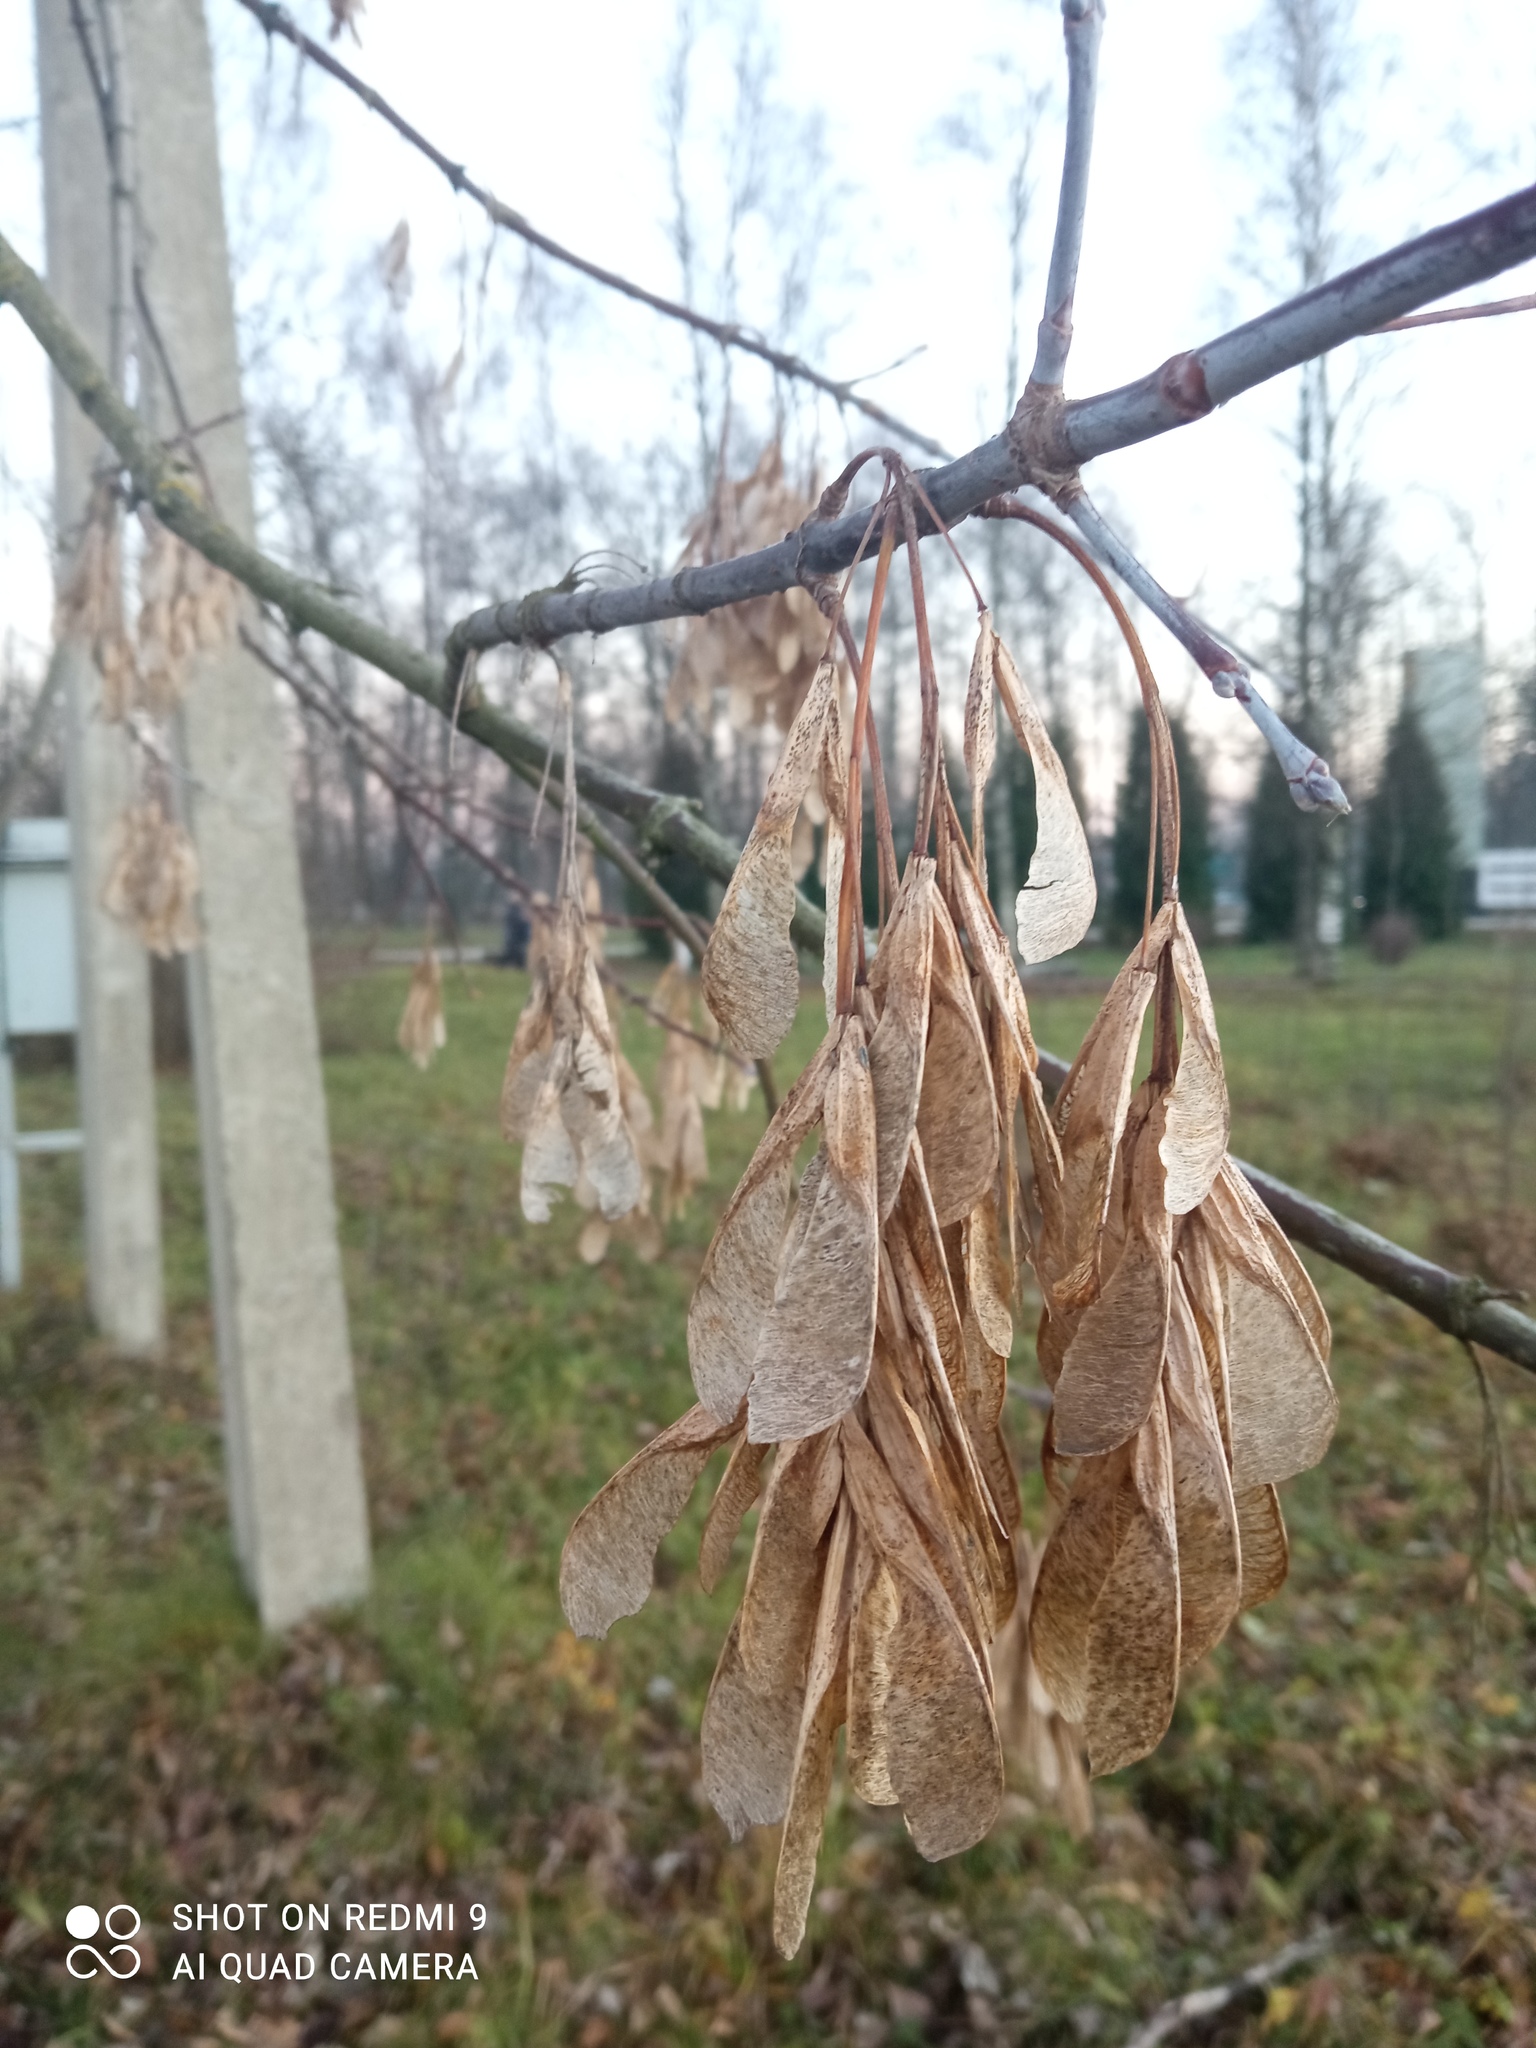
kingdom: Plantae
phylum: Tracheophyta
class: Magnoliopsida
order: Sapindales
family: Sapindaceae
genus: Acer
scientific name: Acer negundo
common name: Ashleaf maple
